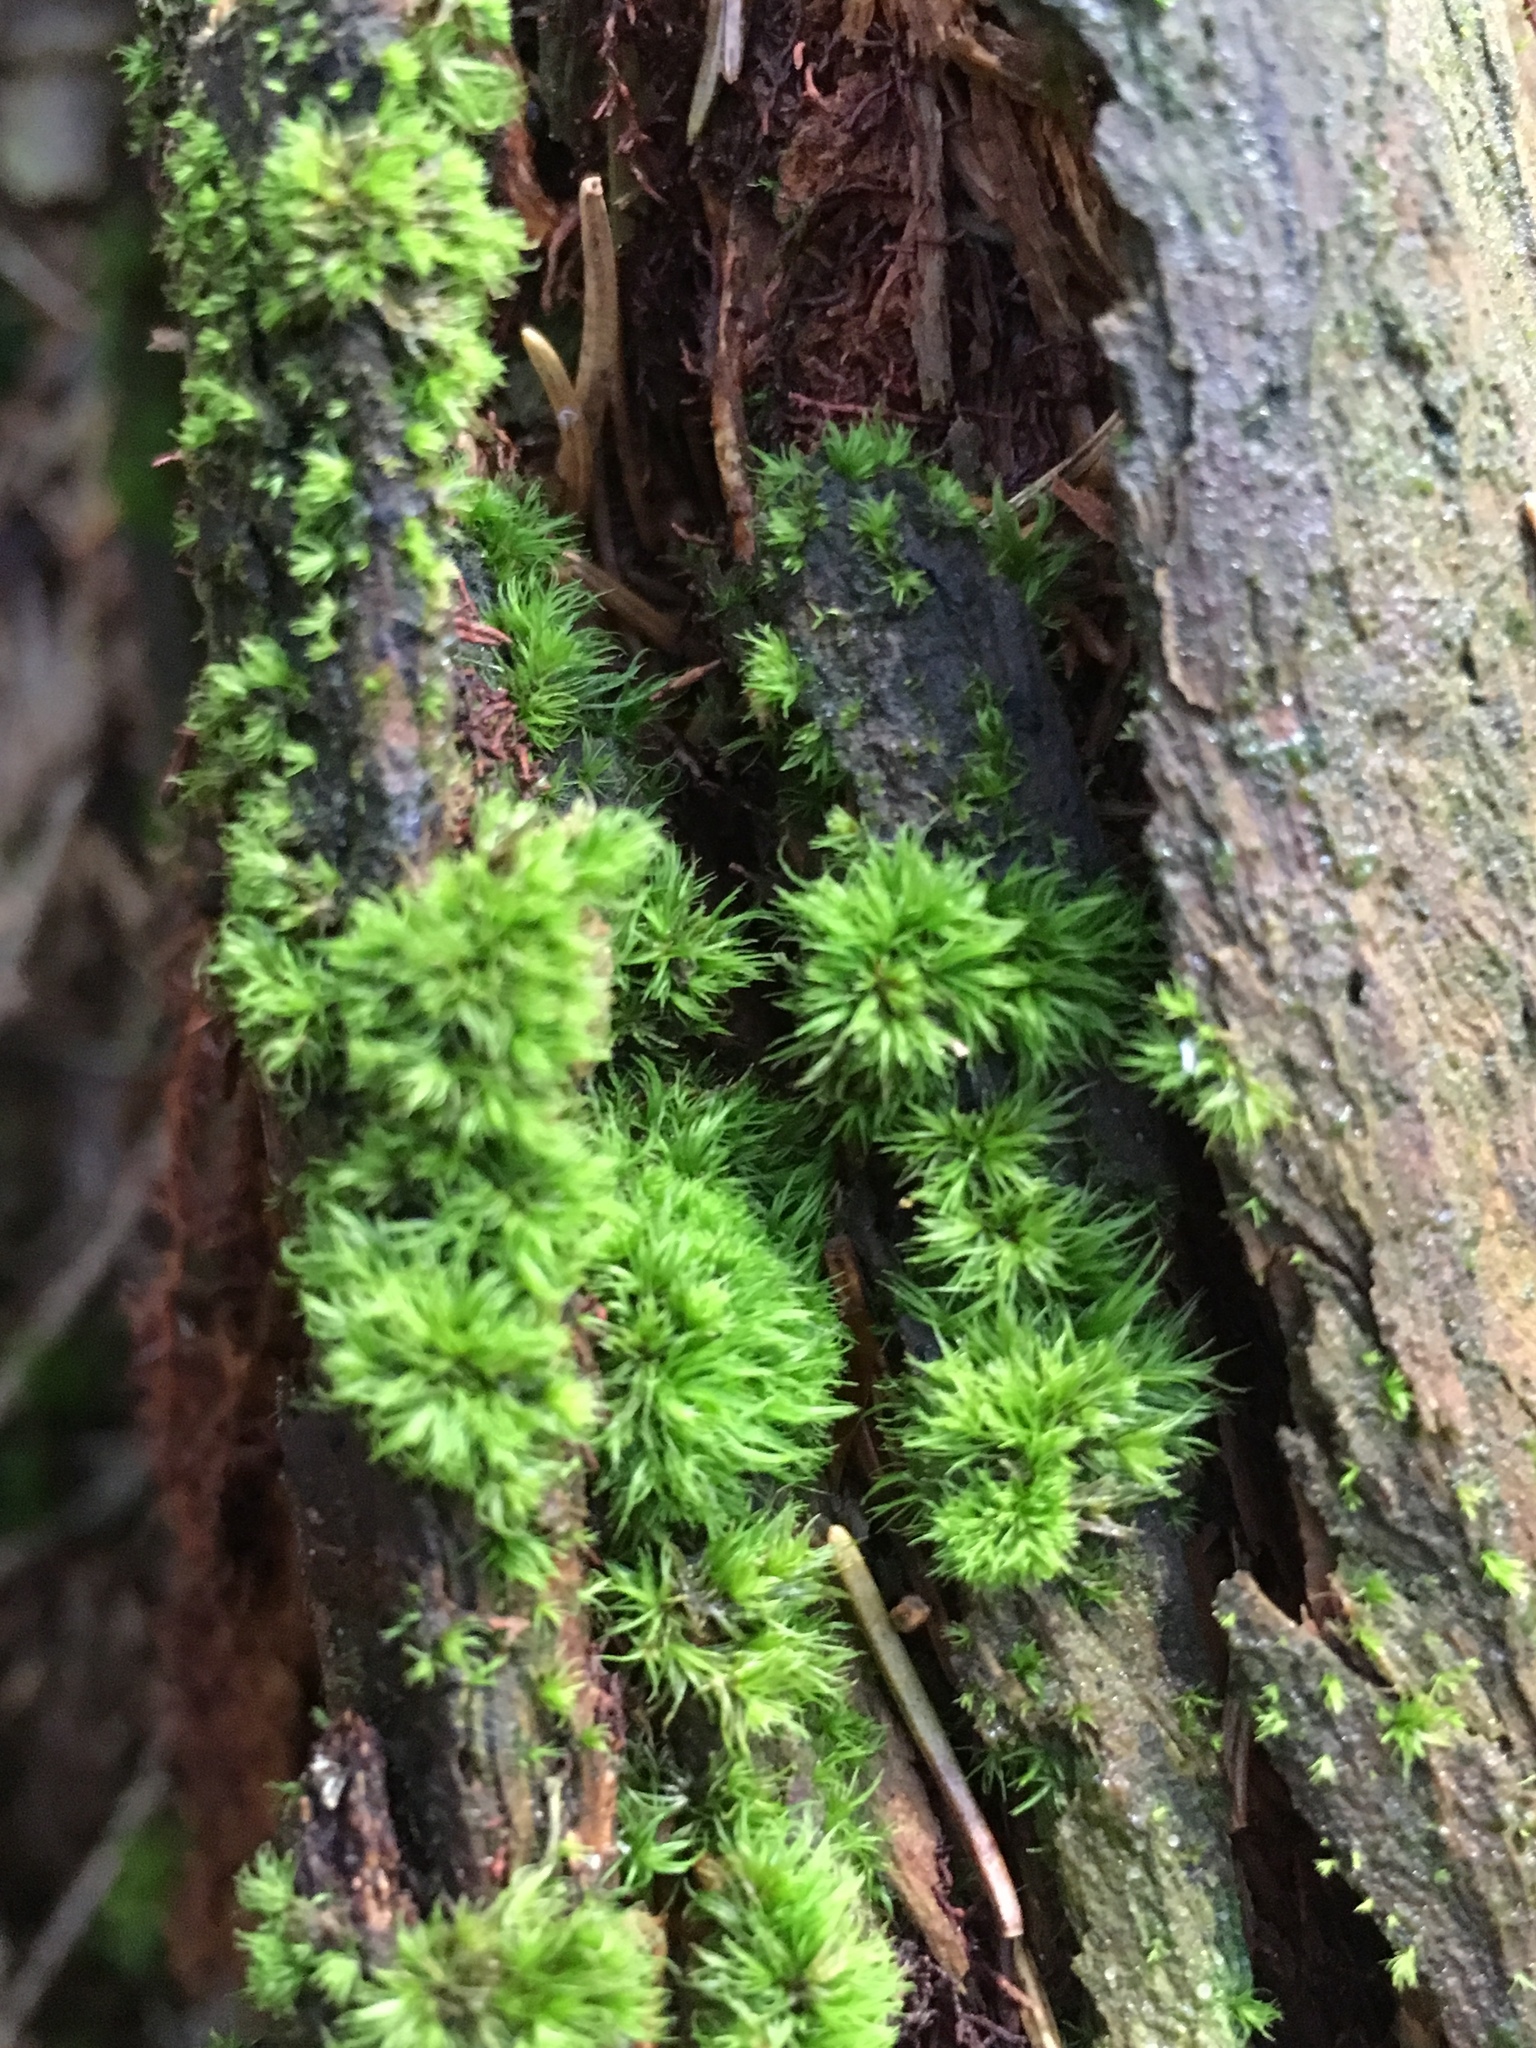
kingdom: Plantae
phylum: Bryophyta
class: Bryopsida
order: Dicranales
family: Dicranaceae
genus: Orthodicranum
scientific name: Orthodicranum montanum
